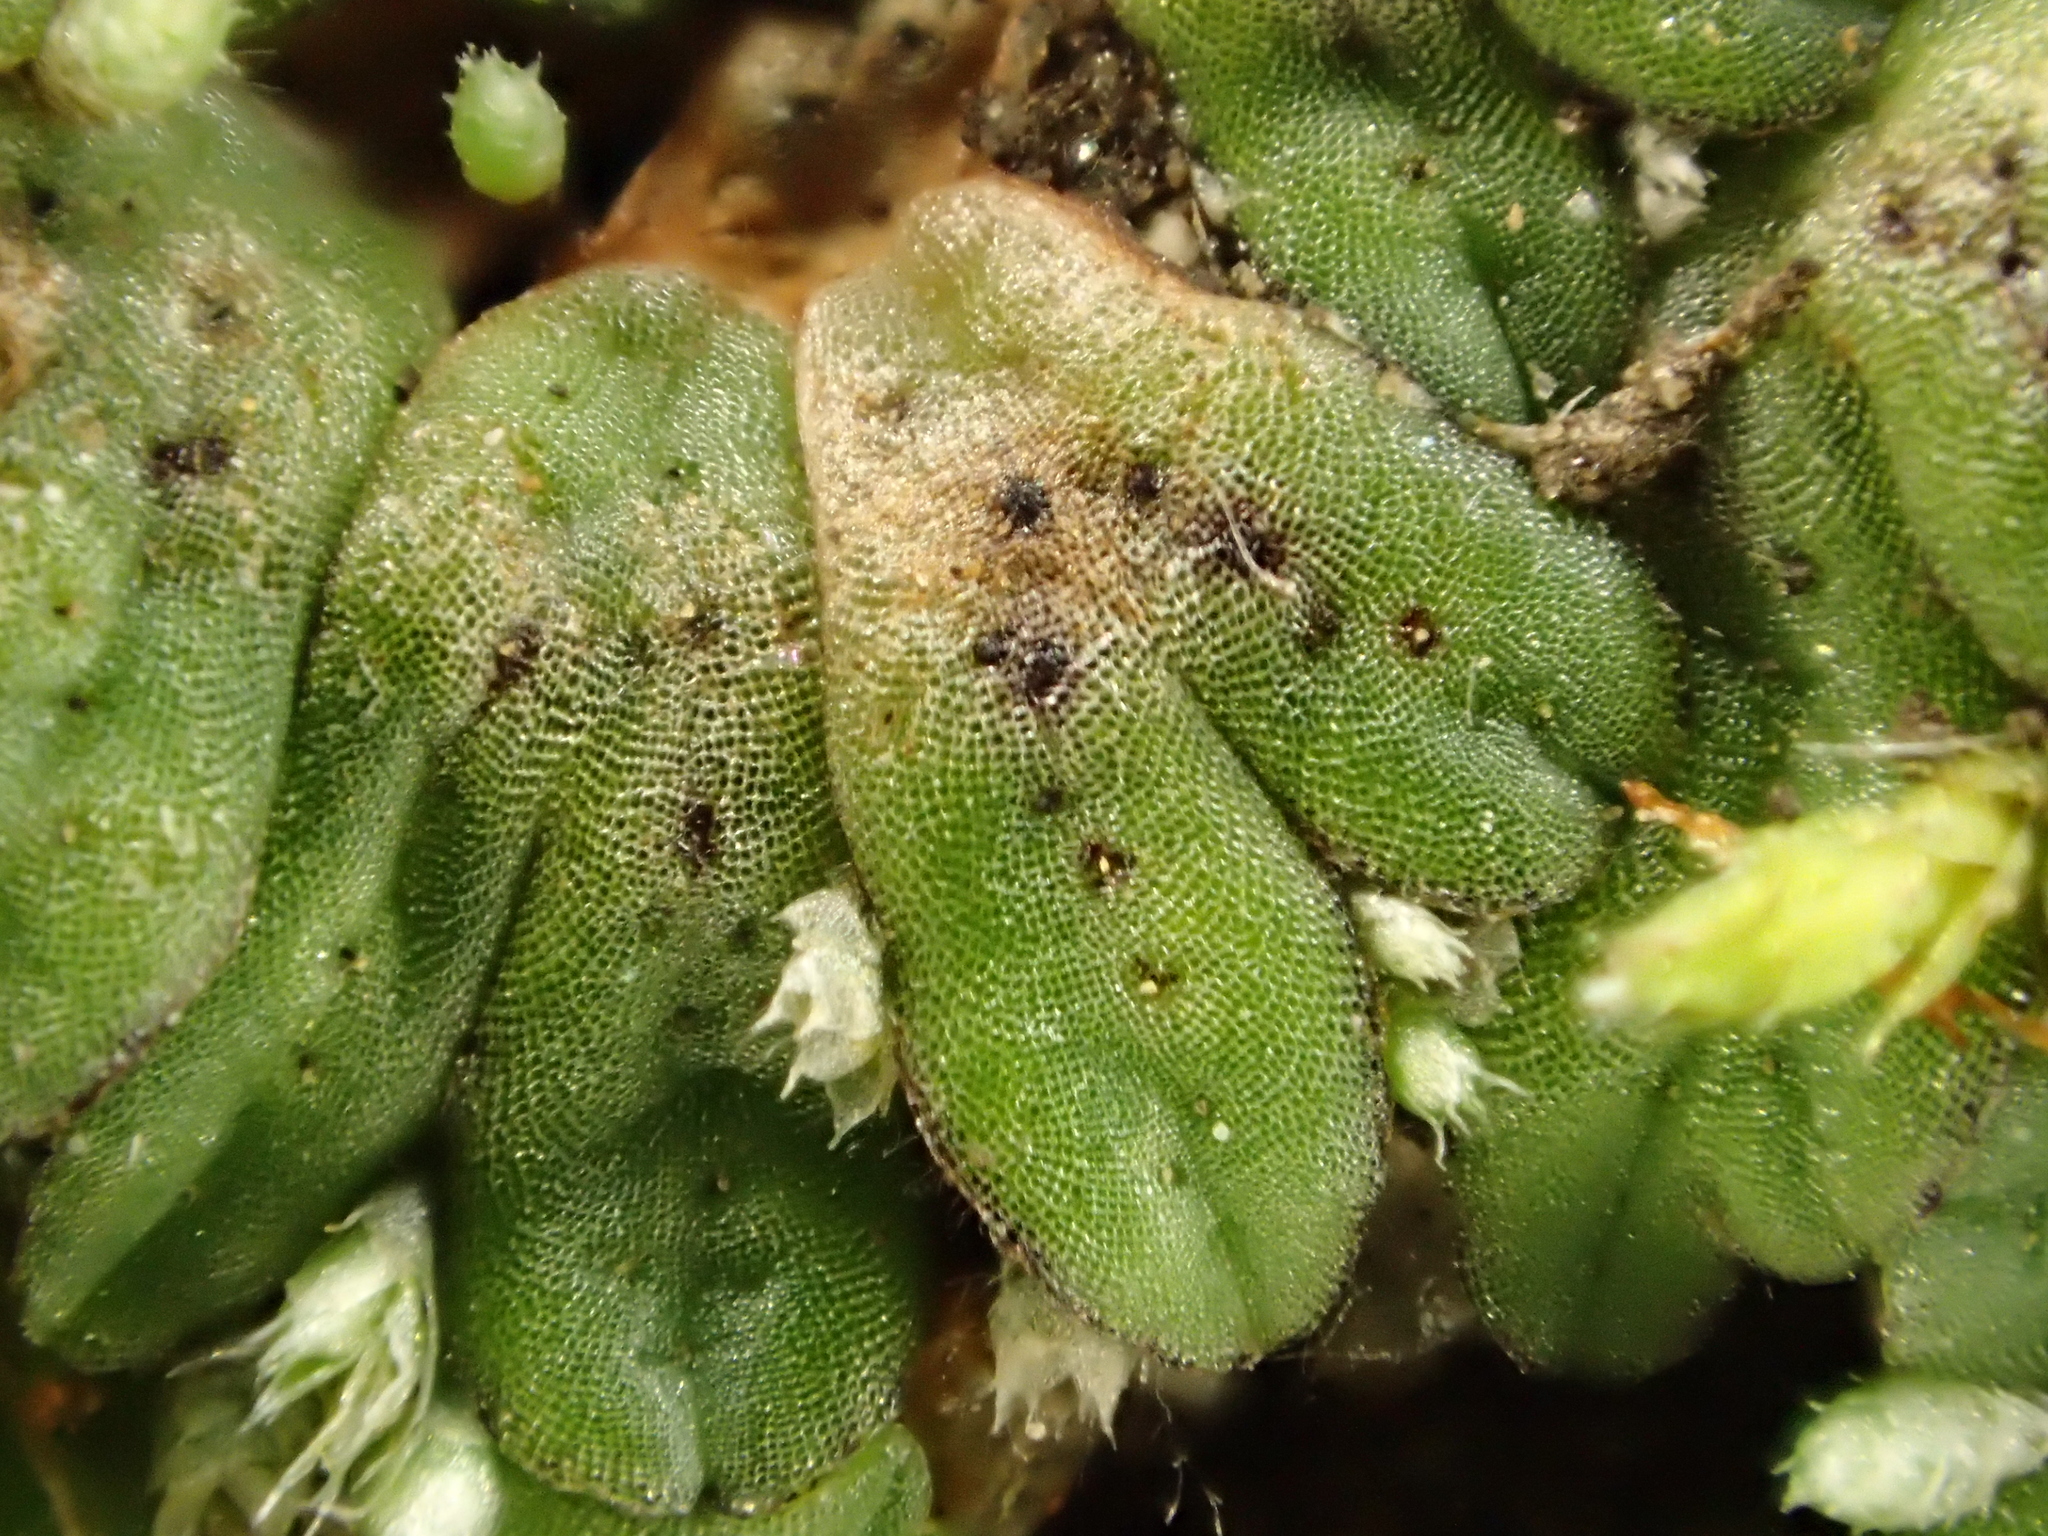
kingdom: Plantae
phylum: Marchantiophyta
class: Marchantiopsida
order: Marchantiales
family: Ricciaceae
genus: Riccia
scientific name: Riccia nigrella
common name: Black crystalwort
